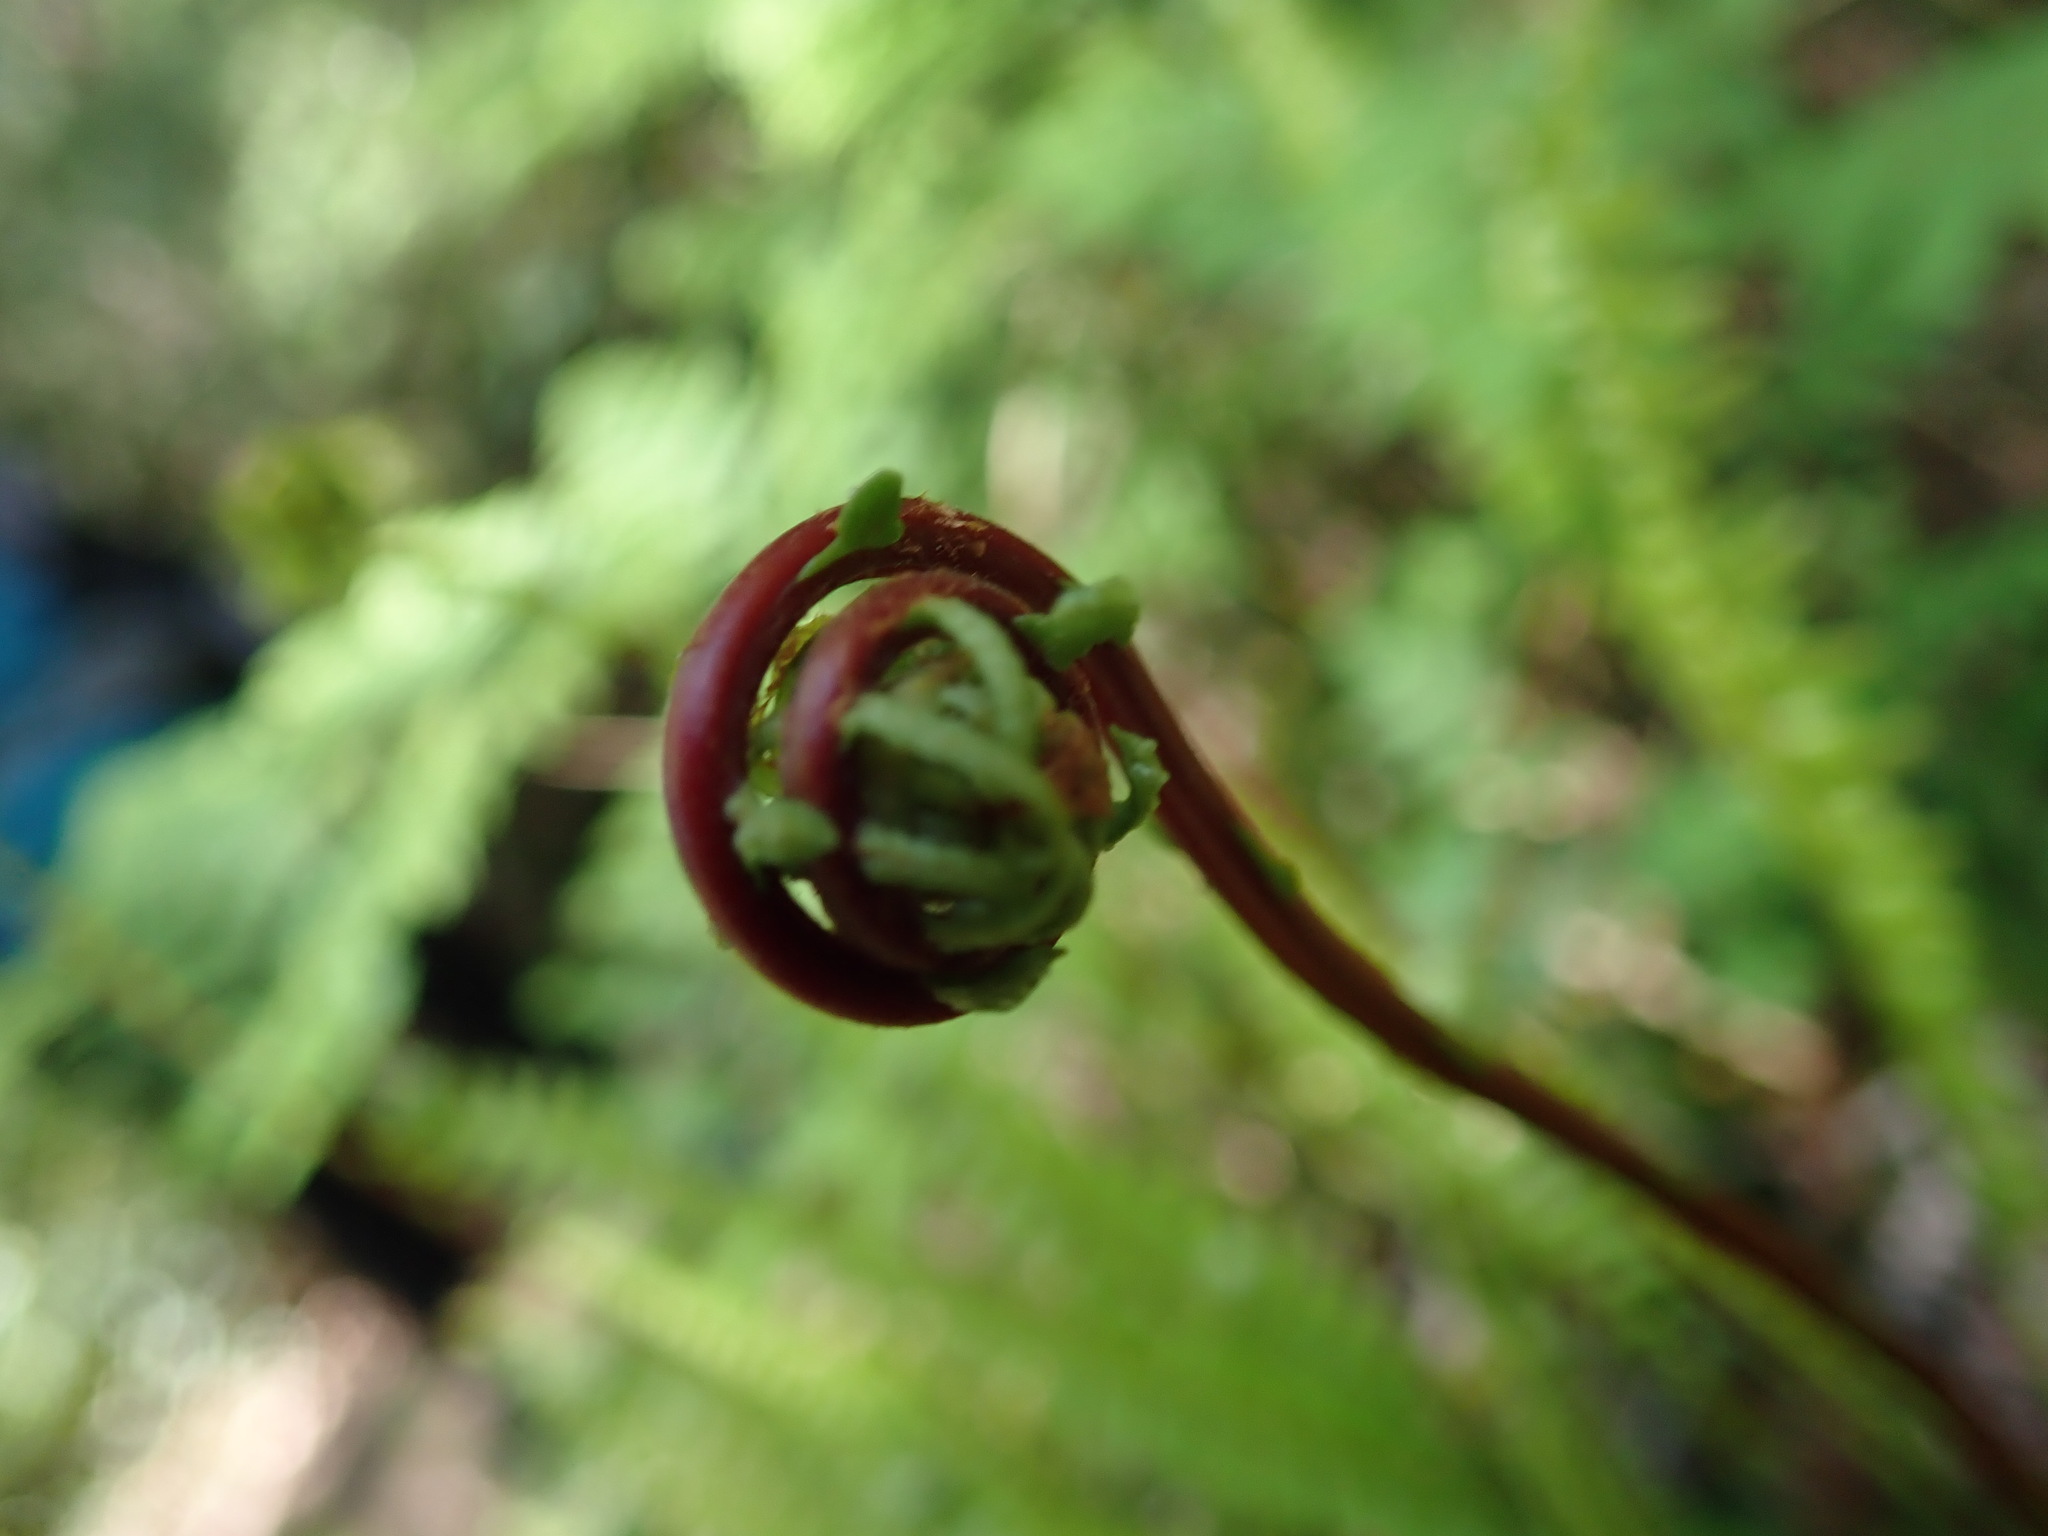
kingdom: Plantae
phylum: Tracheophyta
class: Polypodiopsida
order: Polypodiales
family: Blechnaceae
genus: Struthiopteris
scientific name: Struthiopteris spicant
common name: Deer fern
